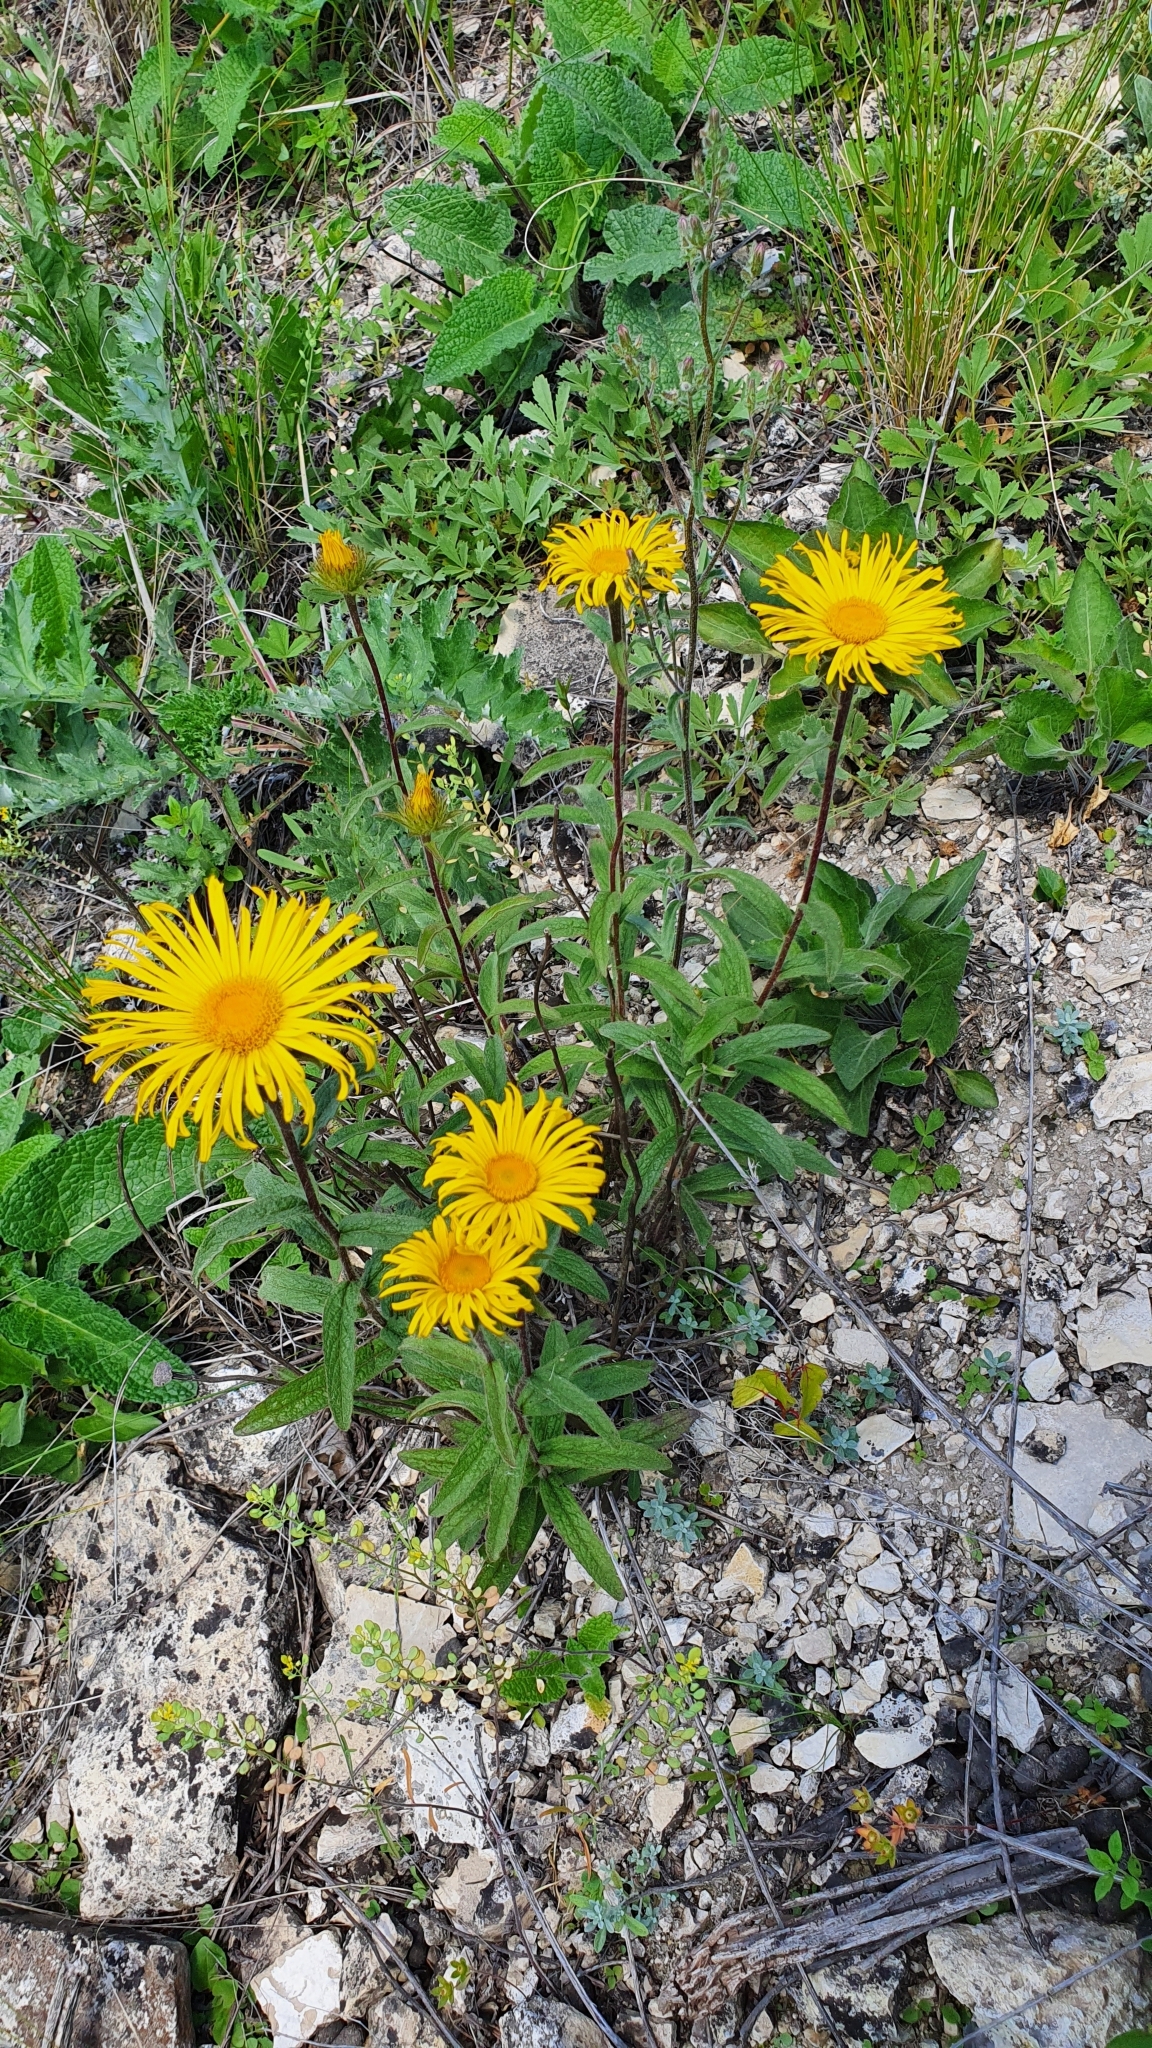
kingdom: Plantae
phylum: Tracheophyta
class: Magnoliopsida
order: Asterales
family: Asteraceae
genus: Pentanema
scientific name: Pentanema hirtum
